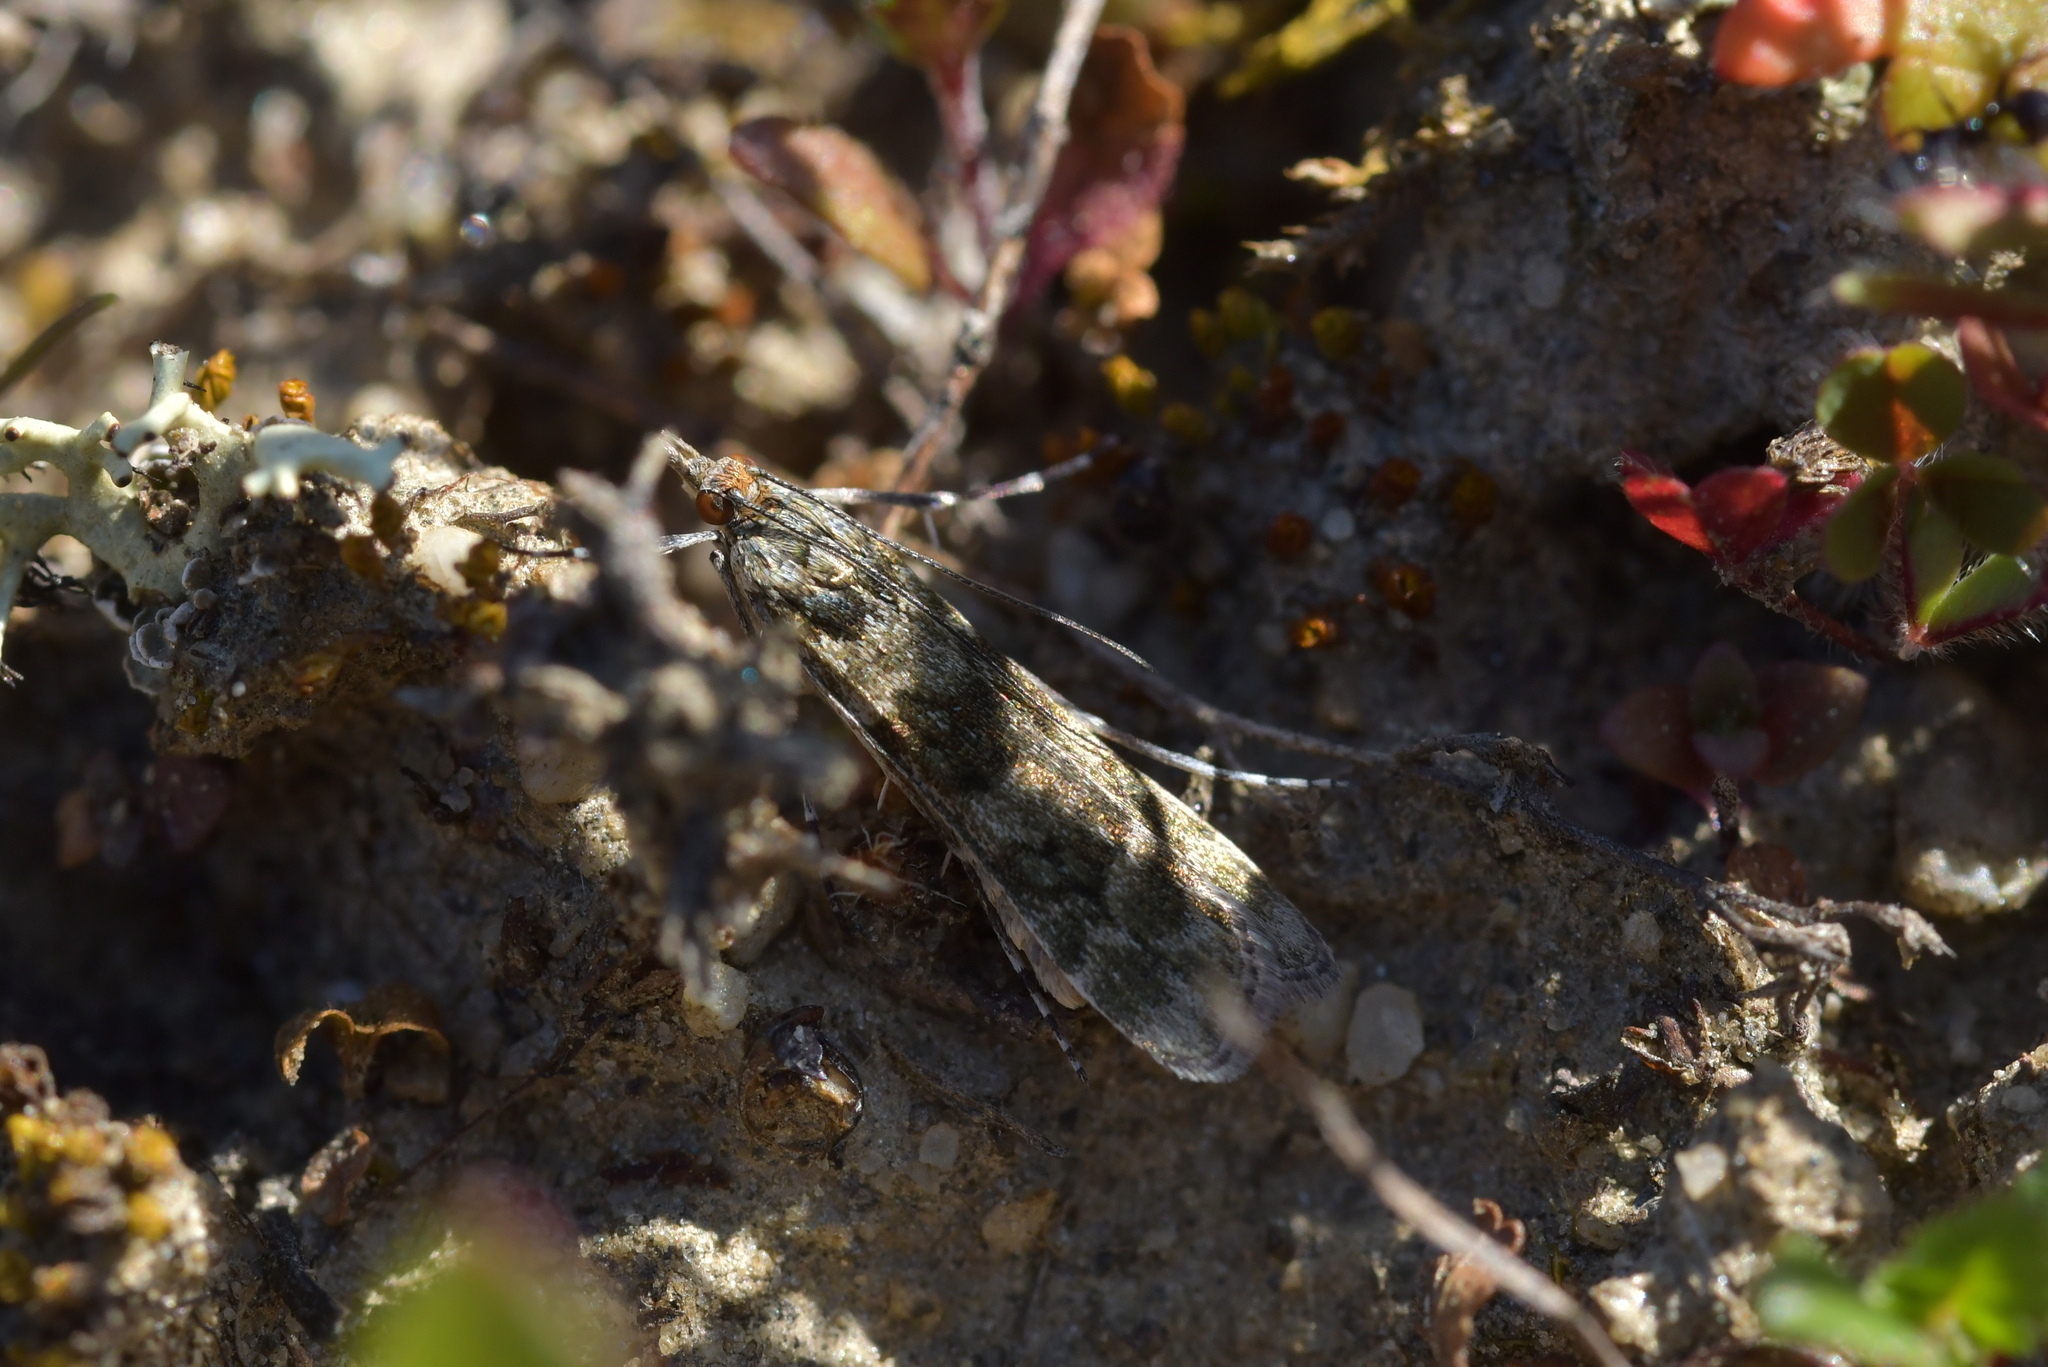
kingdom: Animalia
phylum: Arthropoda
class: Insecta
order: Lepidoptera
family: Crambidae
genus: Eudonia
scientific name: Eudonia gyrotoma
